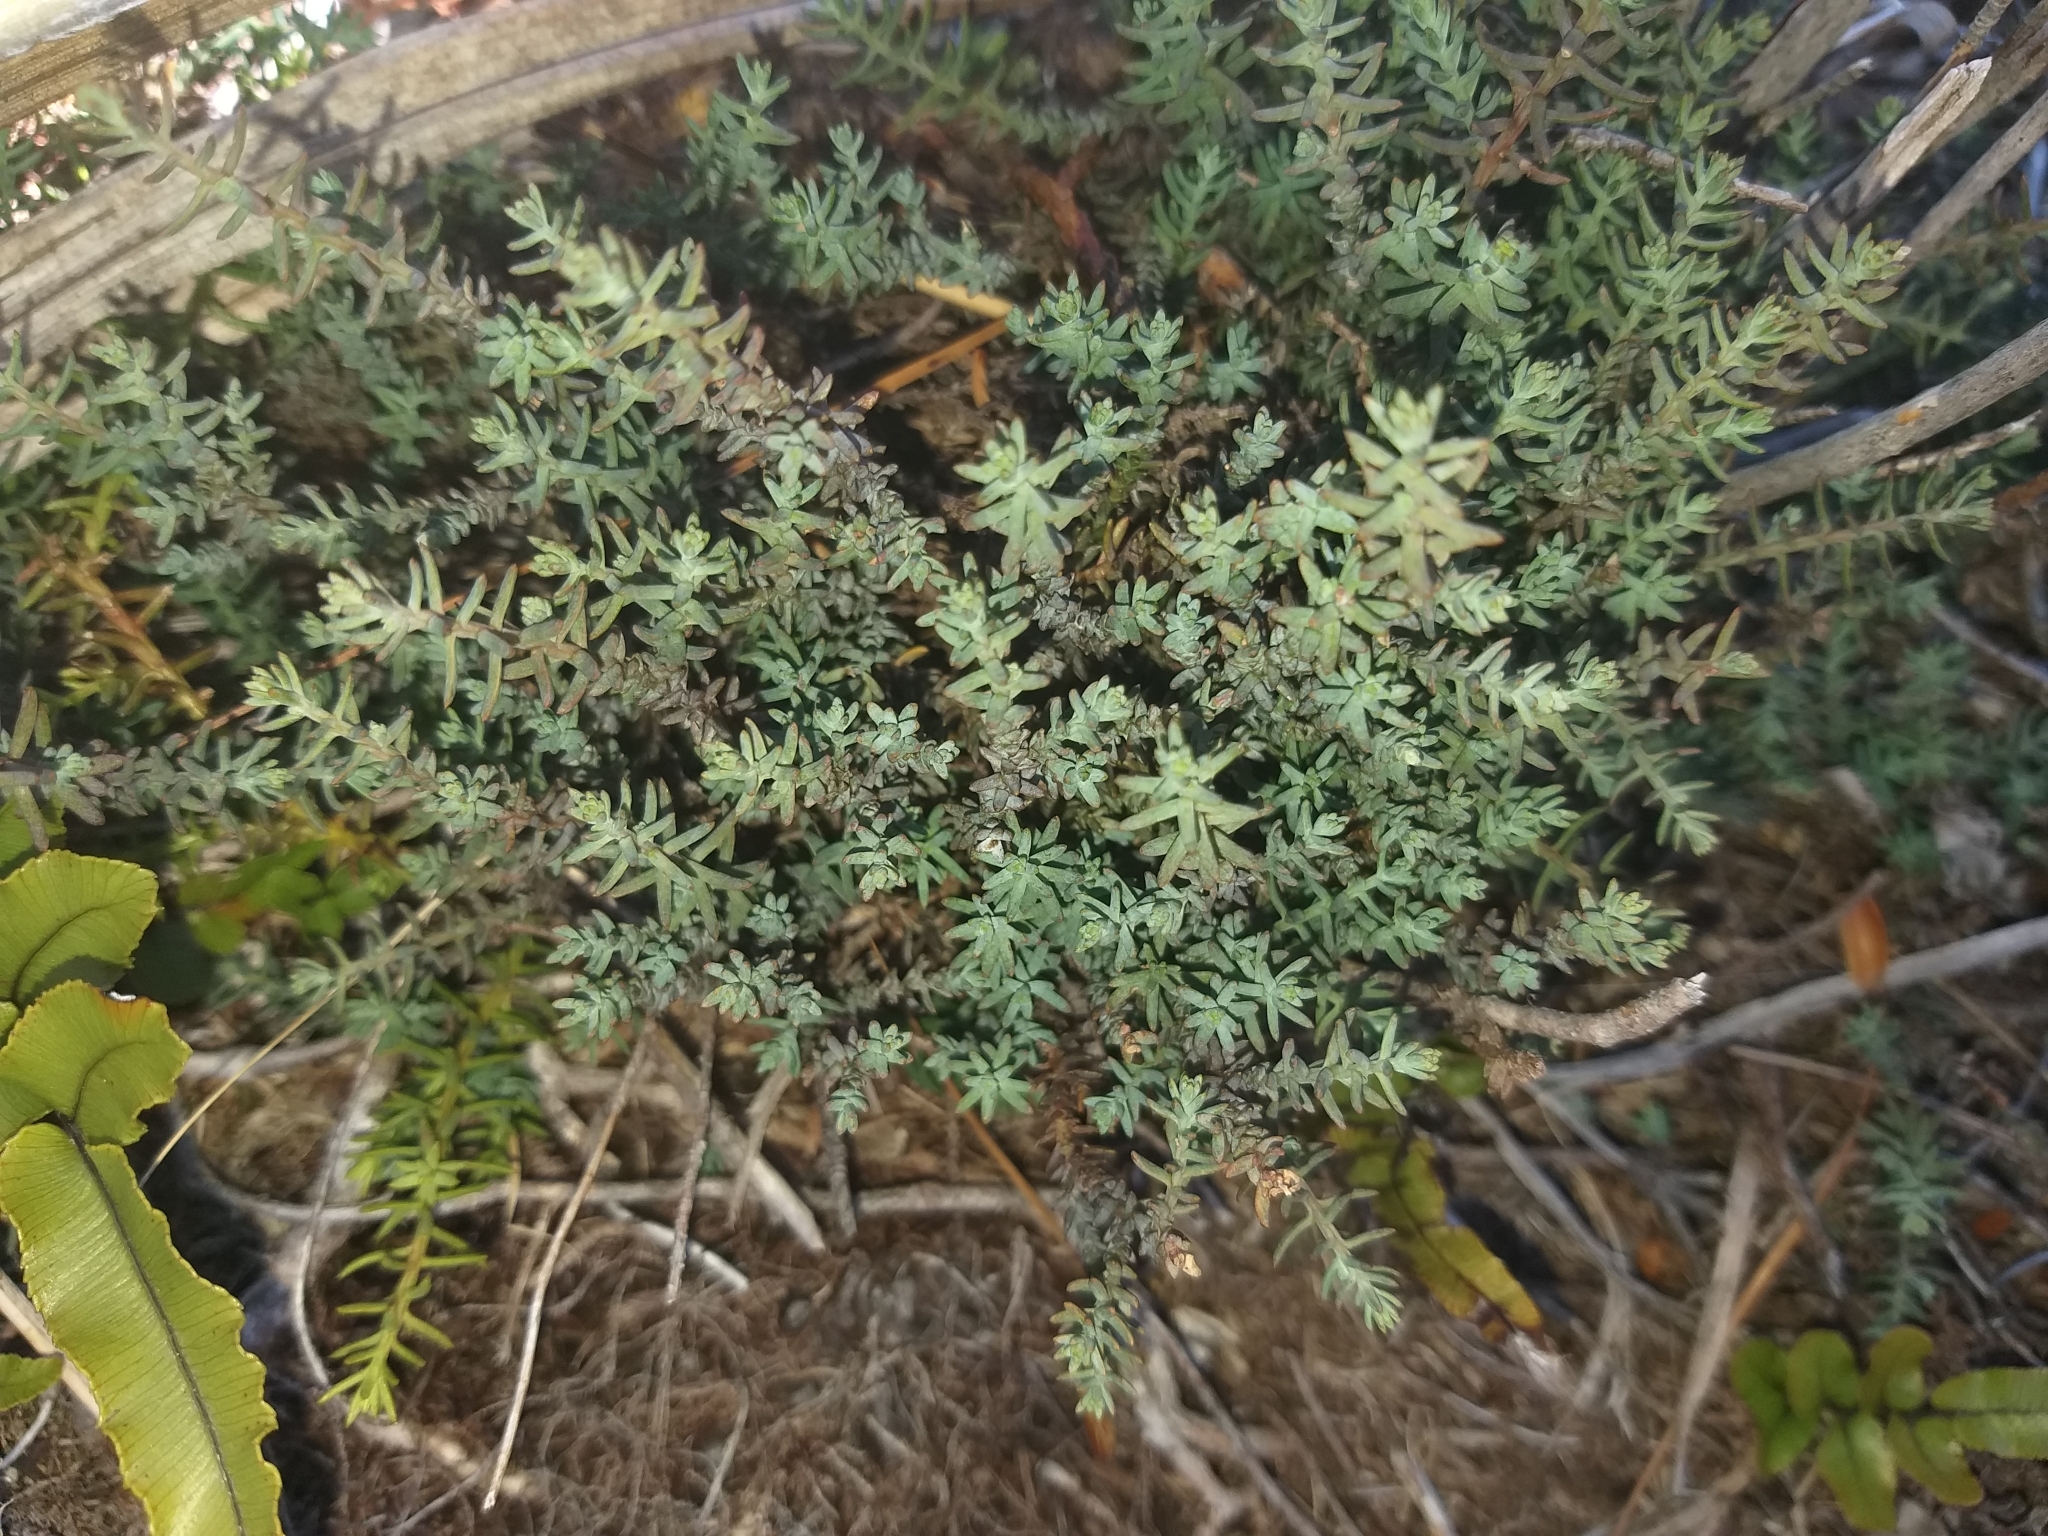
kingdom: Plantae
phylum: Tracheophyta
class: Pinopsida
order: Pinales
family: Podocarpaceae
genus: Lepidothamnus
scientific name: Lepidothamnus laxifolius
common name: Pygmy pine
